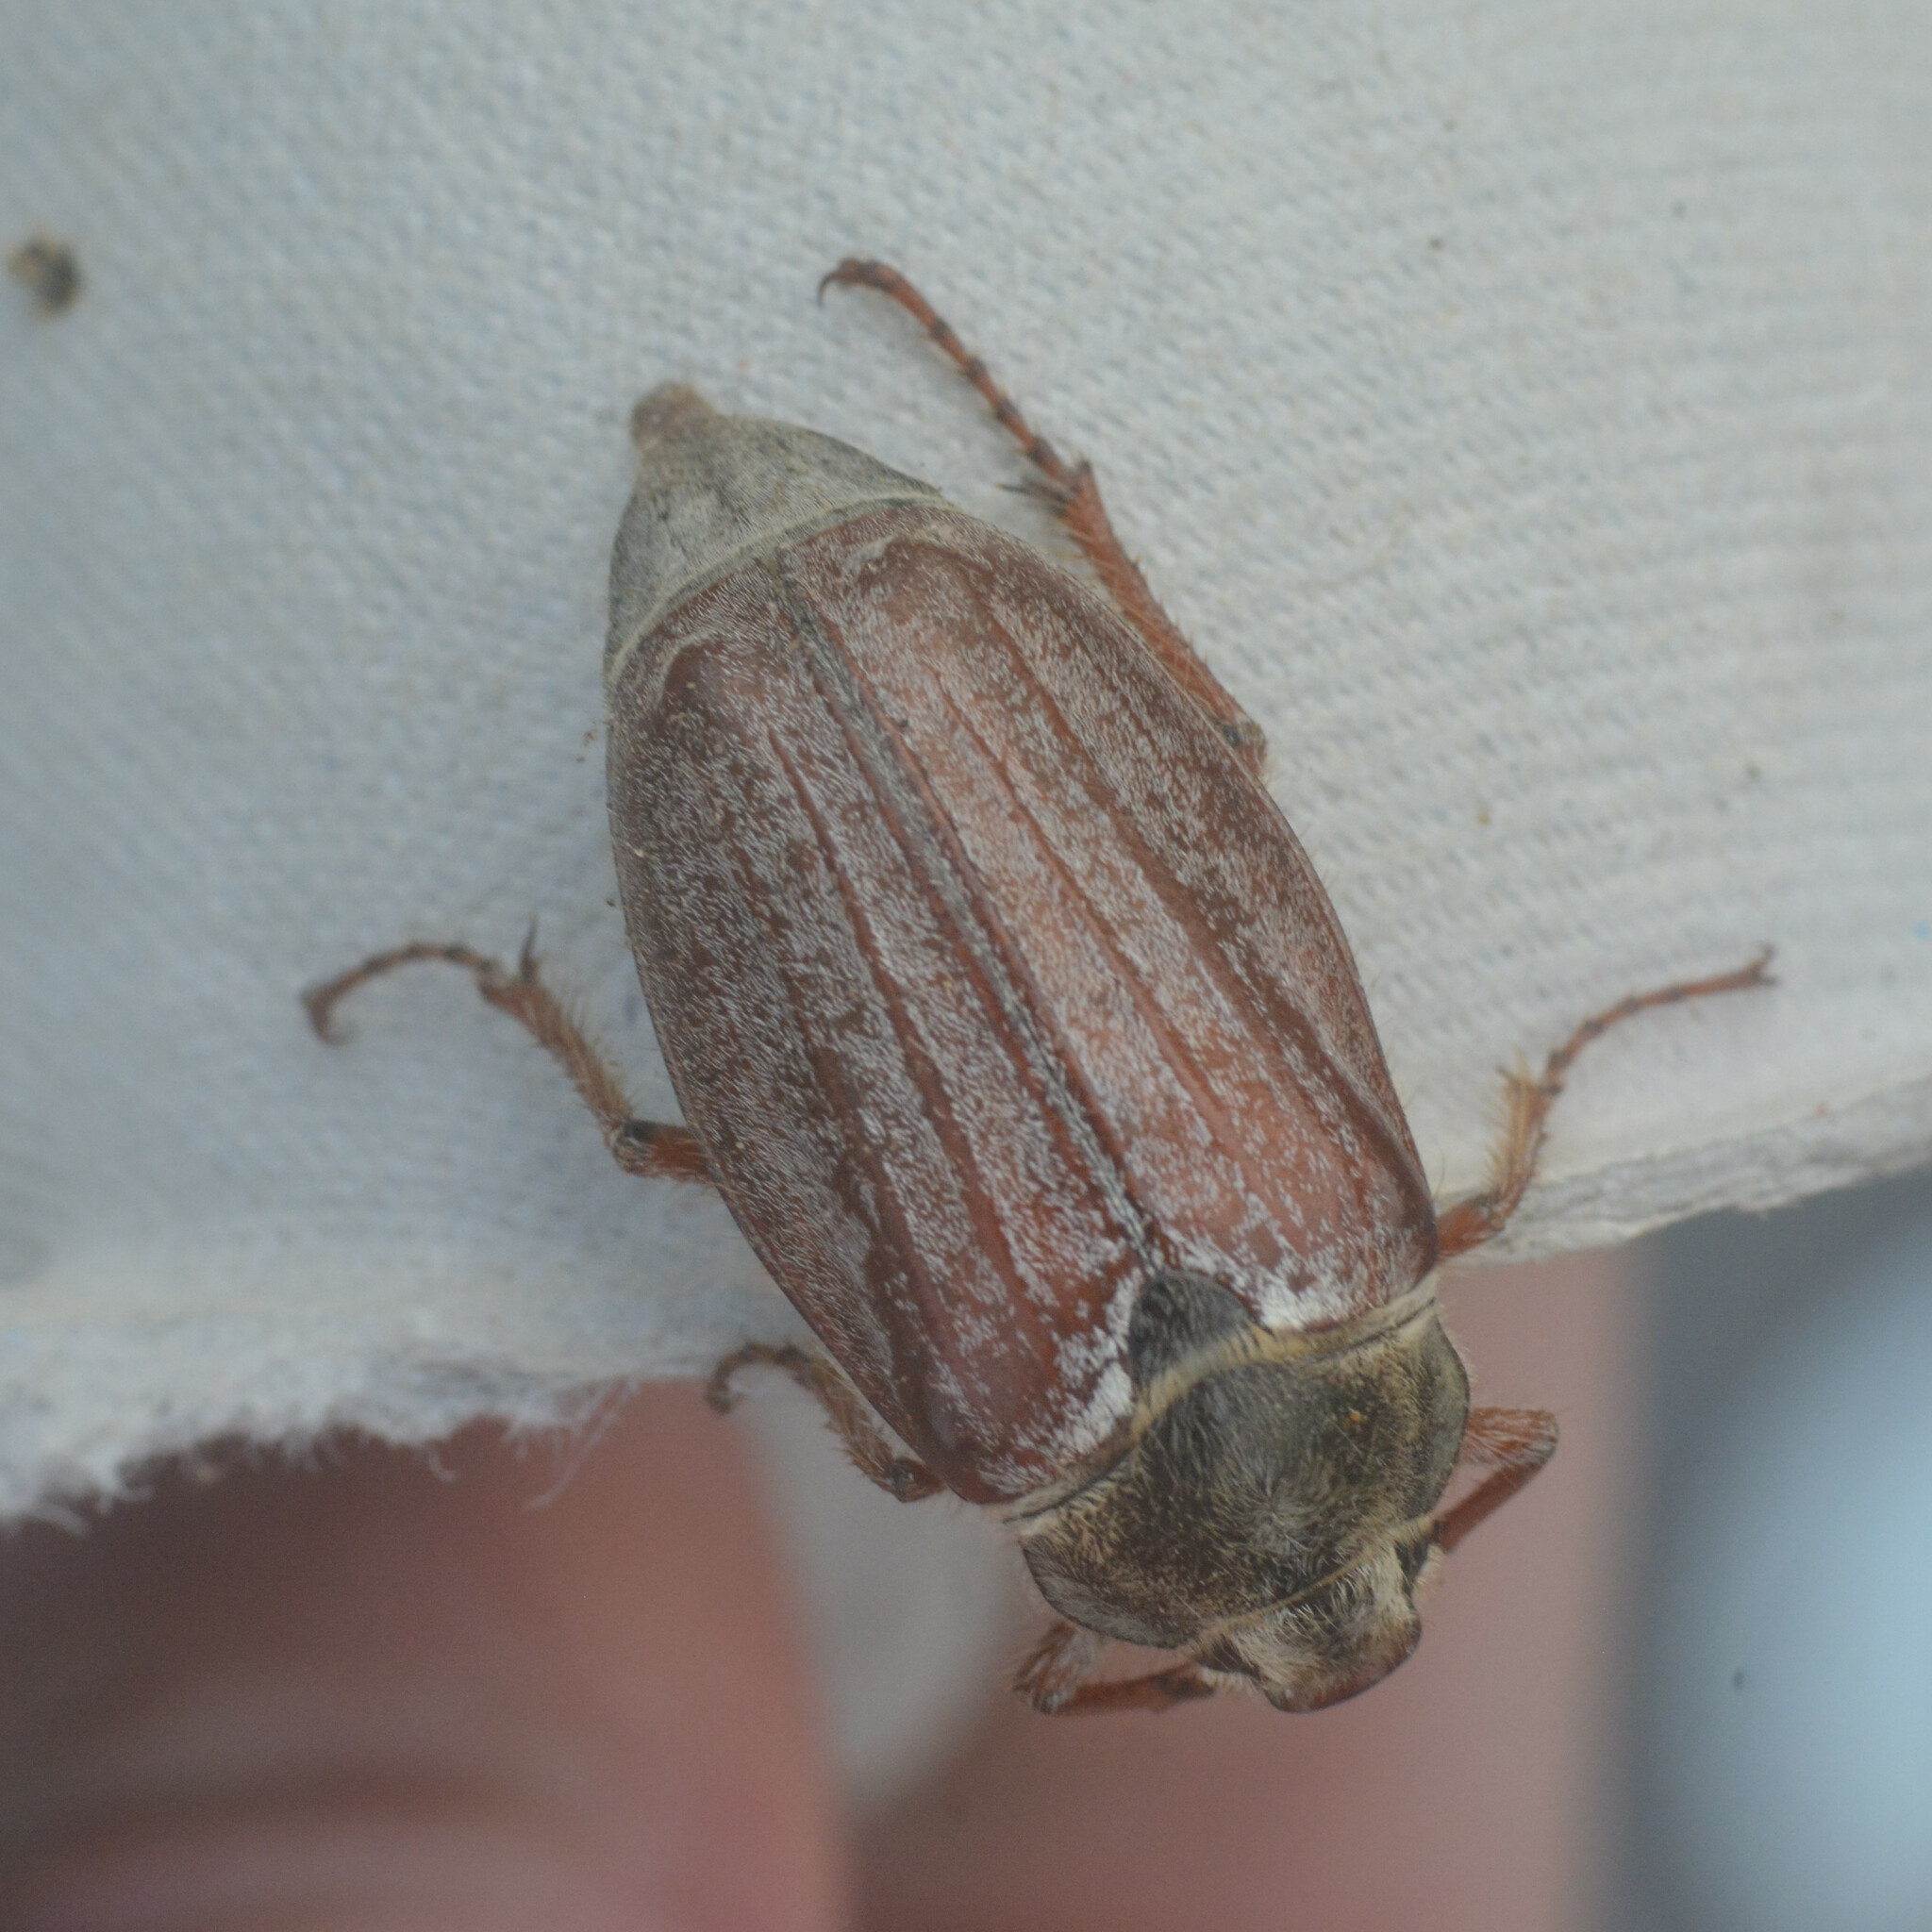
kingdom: Animalia
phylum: Arthropoda
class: Insecta
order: Coleoptera
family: Scarabaeidae
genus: Melolontha
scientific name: Melolontha melolontha
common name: Cockchafer maybeetle
